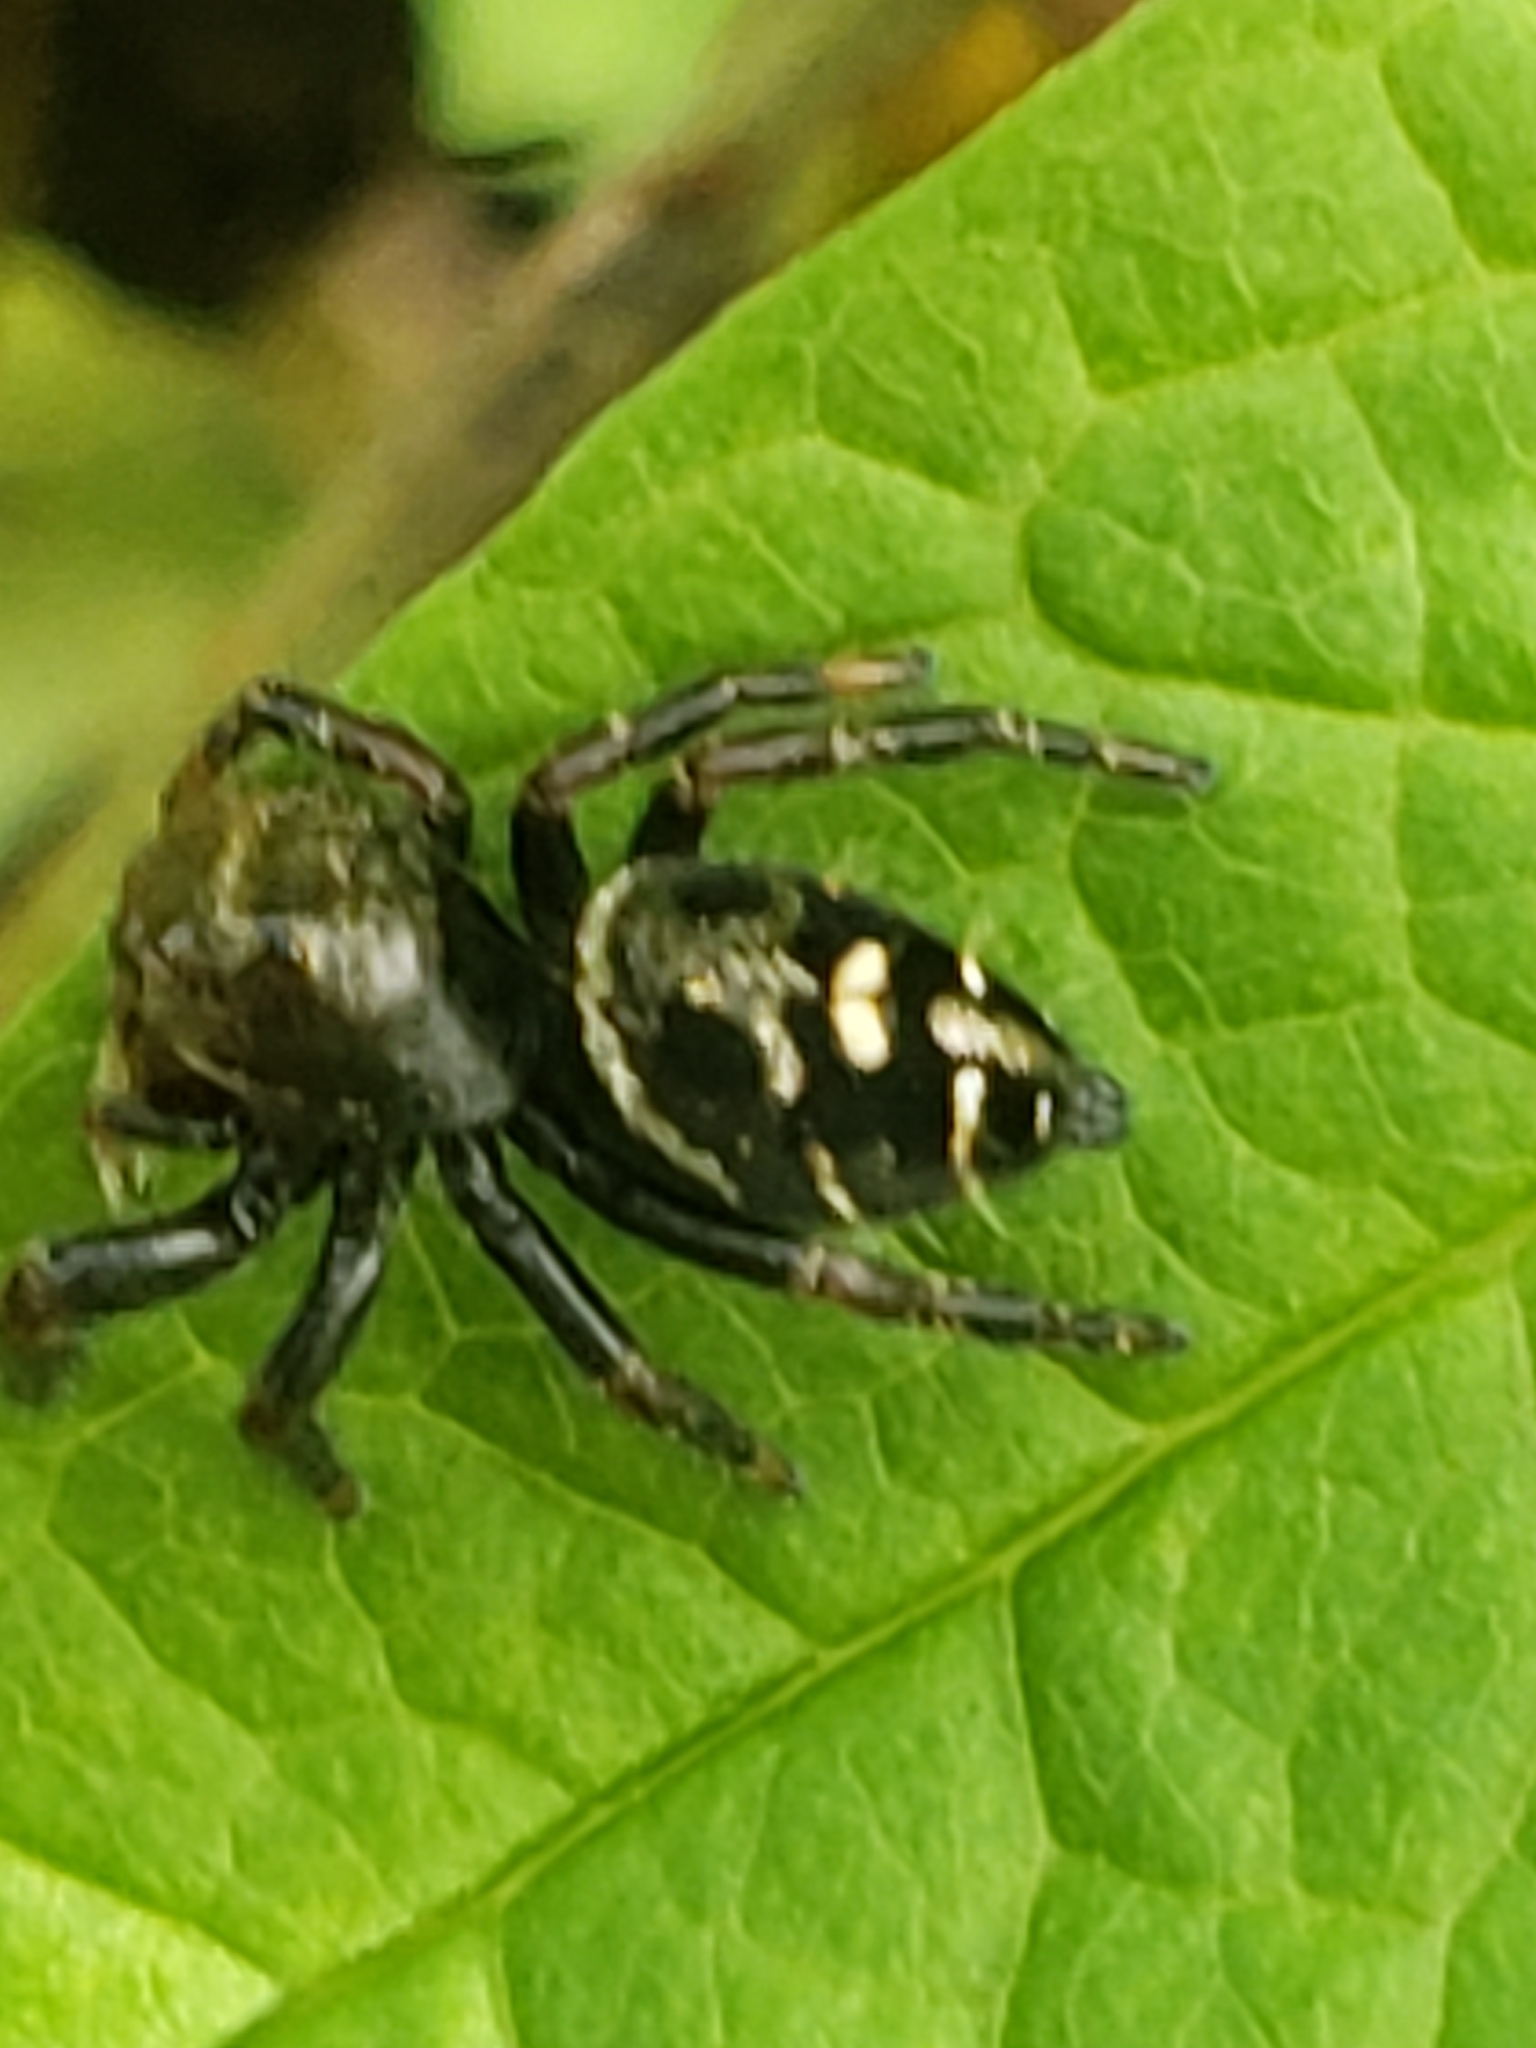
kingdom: Animalia
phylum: Arthropoda
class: Arachnida
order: Araneae
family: Salticidae
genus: Phidippus
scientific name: Phidippus audax
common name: Bold jumper
